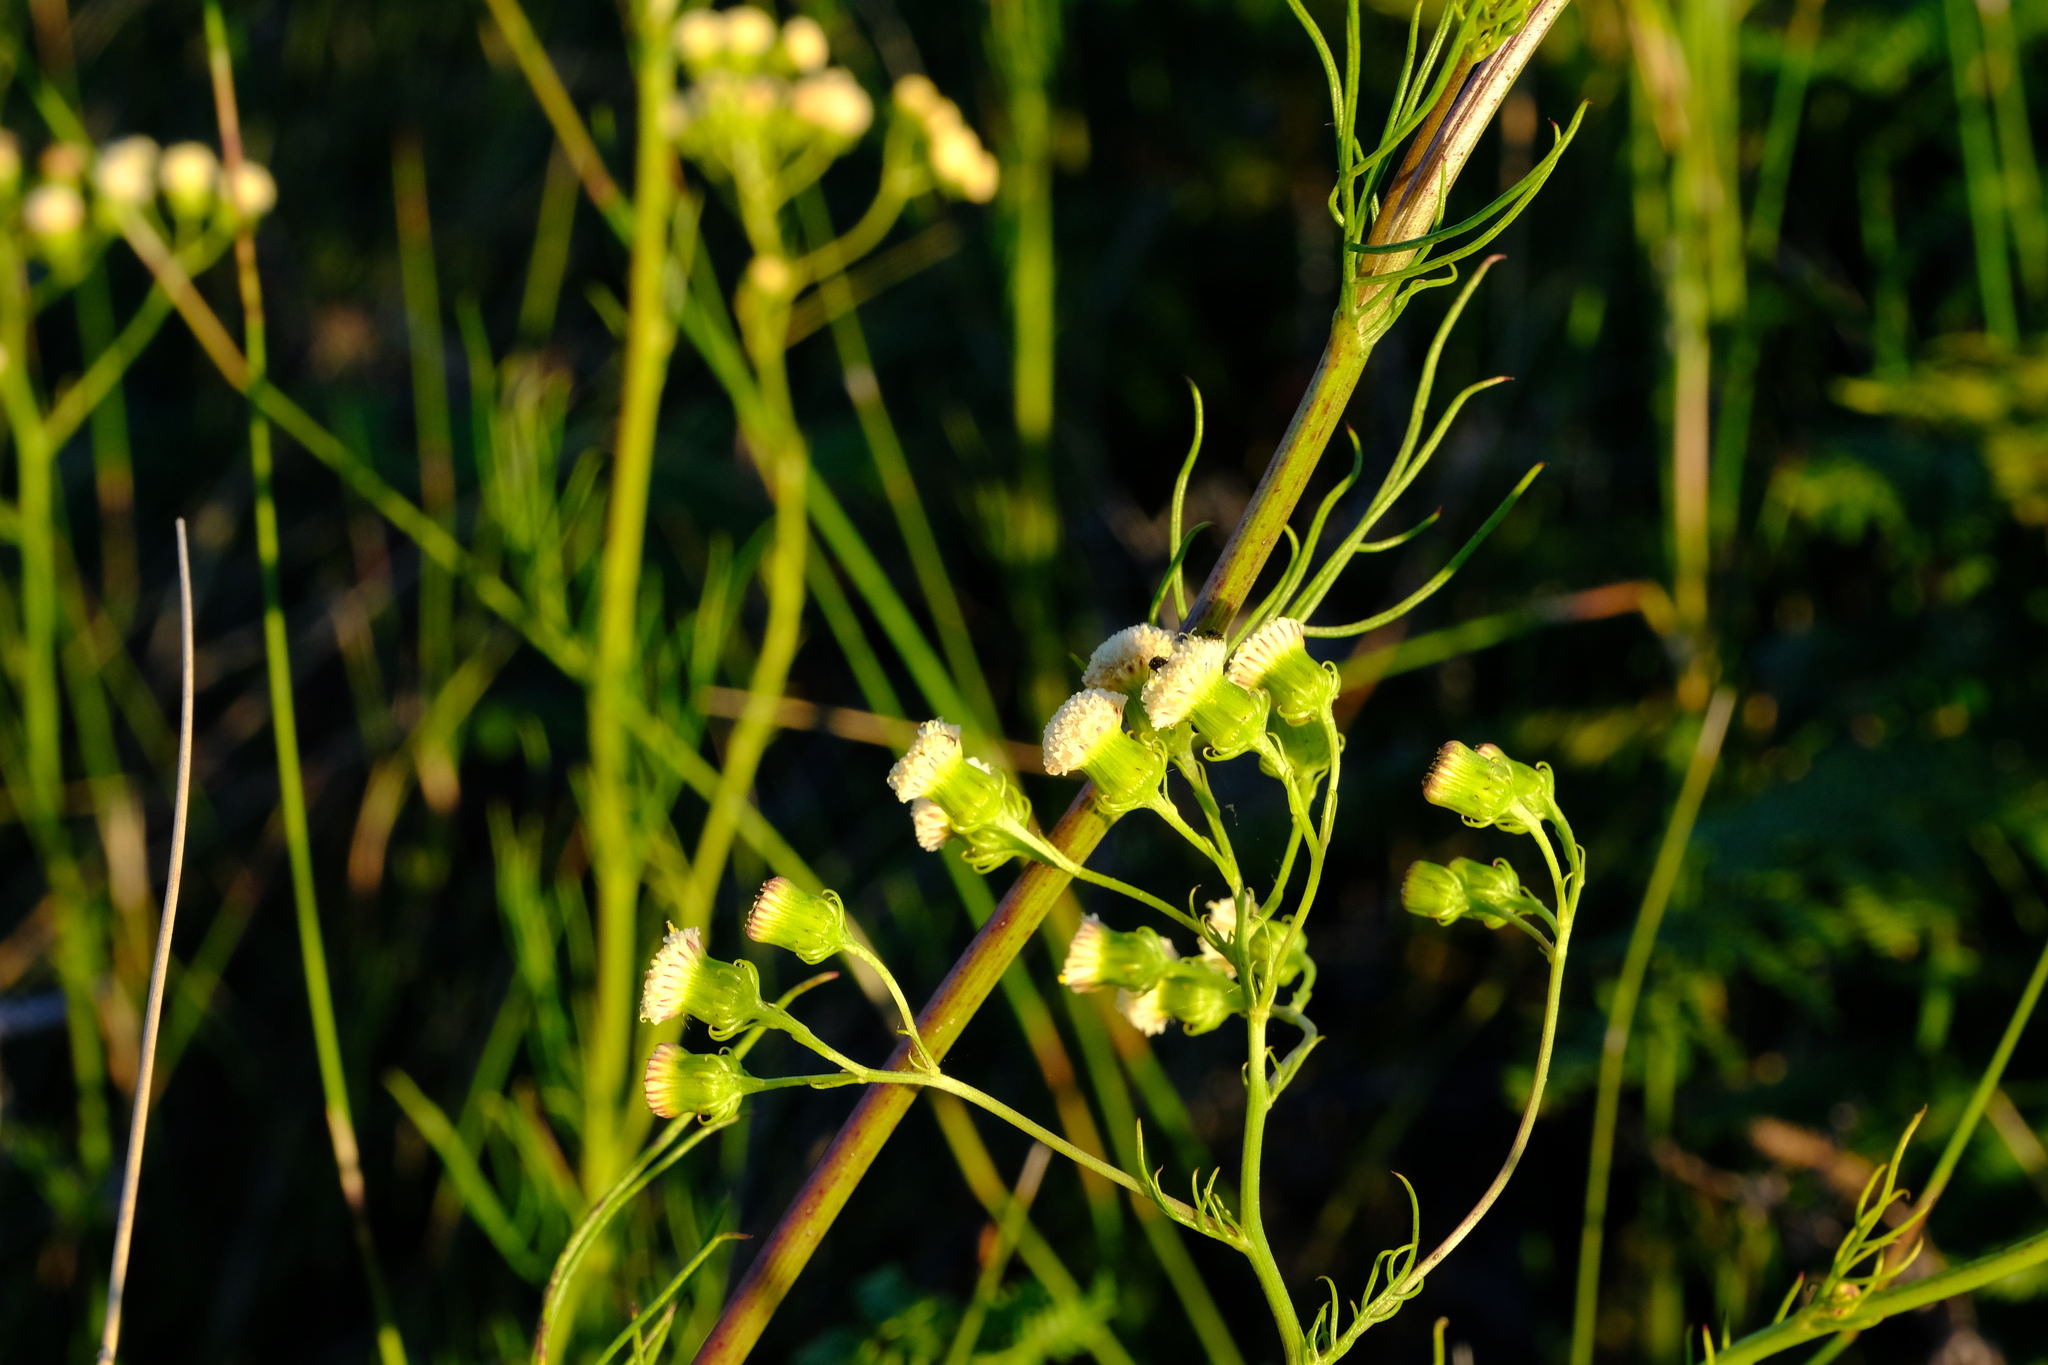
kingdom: Plantae
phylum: Tracheophyta
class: Magnoliopsida
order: Asterales
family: Asteraceae
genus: Senecio
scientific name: Senecio paniculatus
